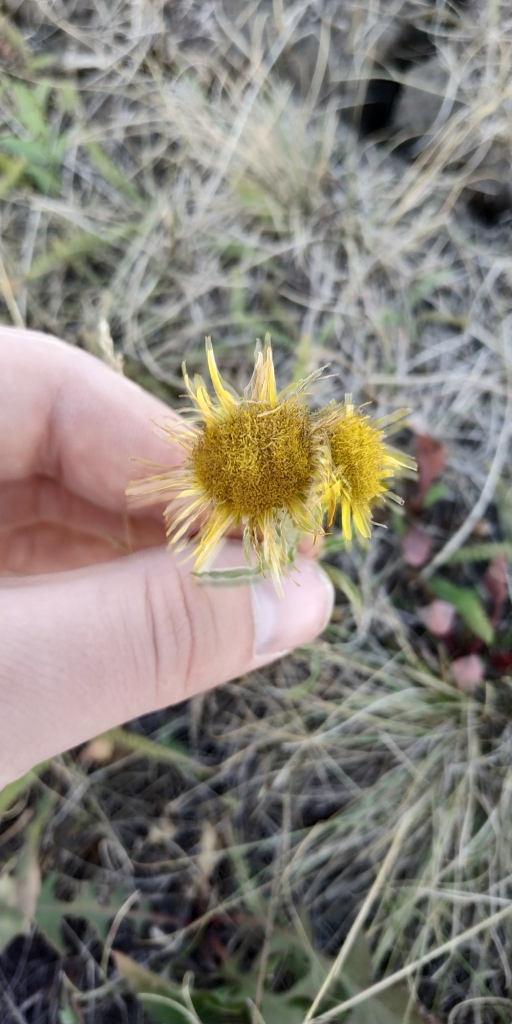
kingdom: Plantae
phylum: Tracheophyta
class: Magnoliopsida
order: Asterales
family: Asteraceae
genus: Pentanema
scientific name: Pentanema britannicum
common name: British elecampane
